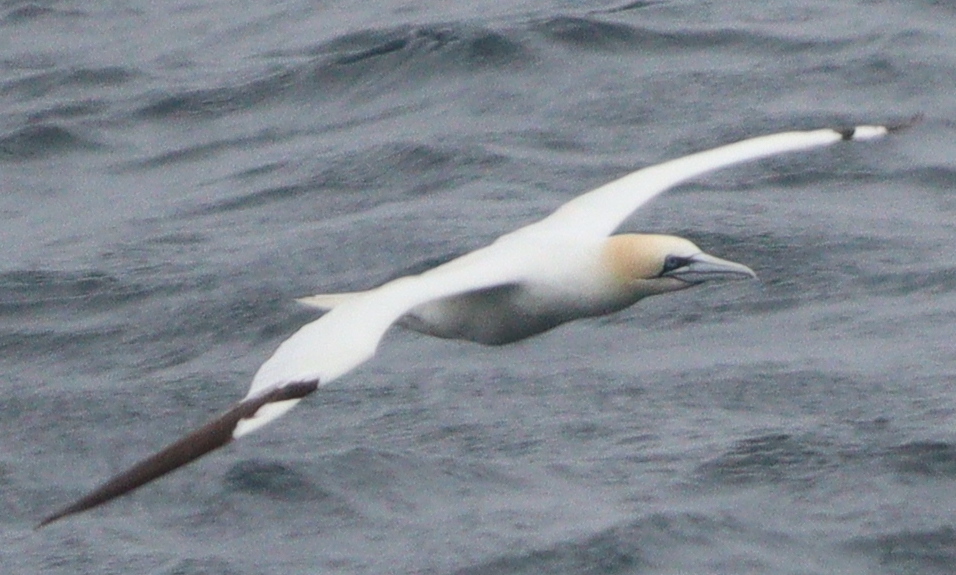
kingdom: Animalia
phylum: Chordata
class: Aves
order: Suliformes
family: Sulidae
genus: Morus
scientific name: Morus bassanus
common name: Northern gannet
